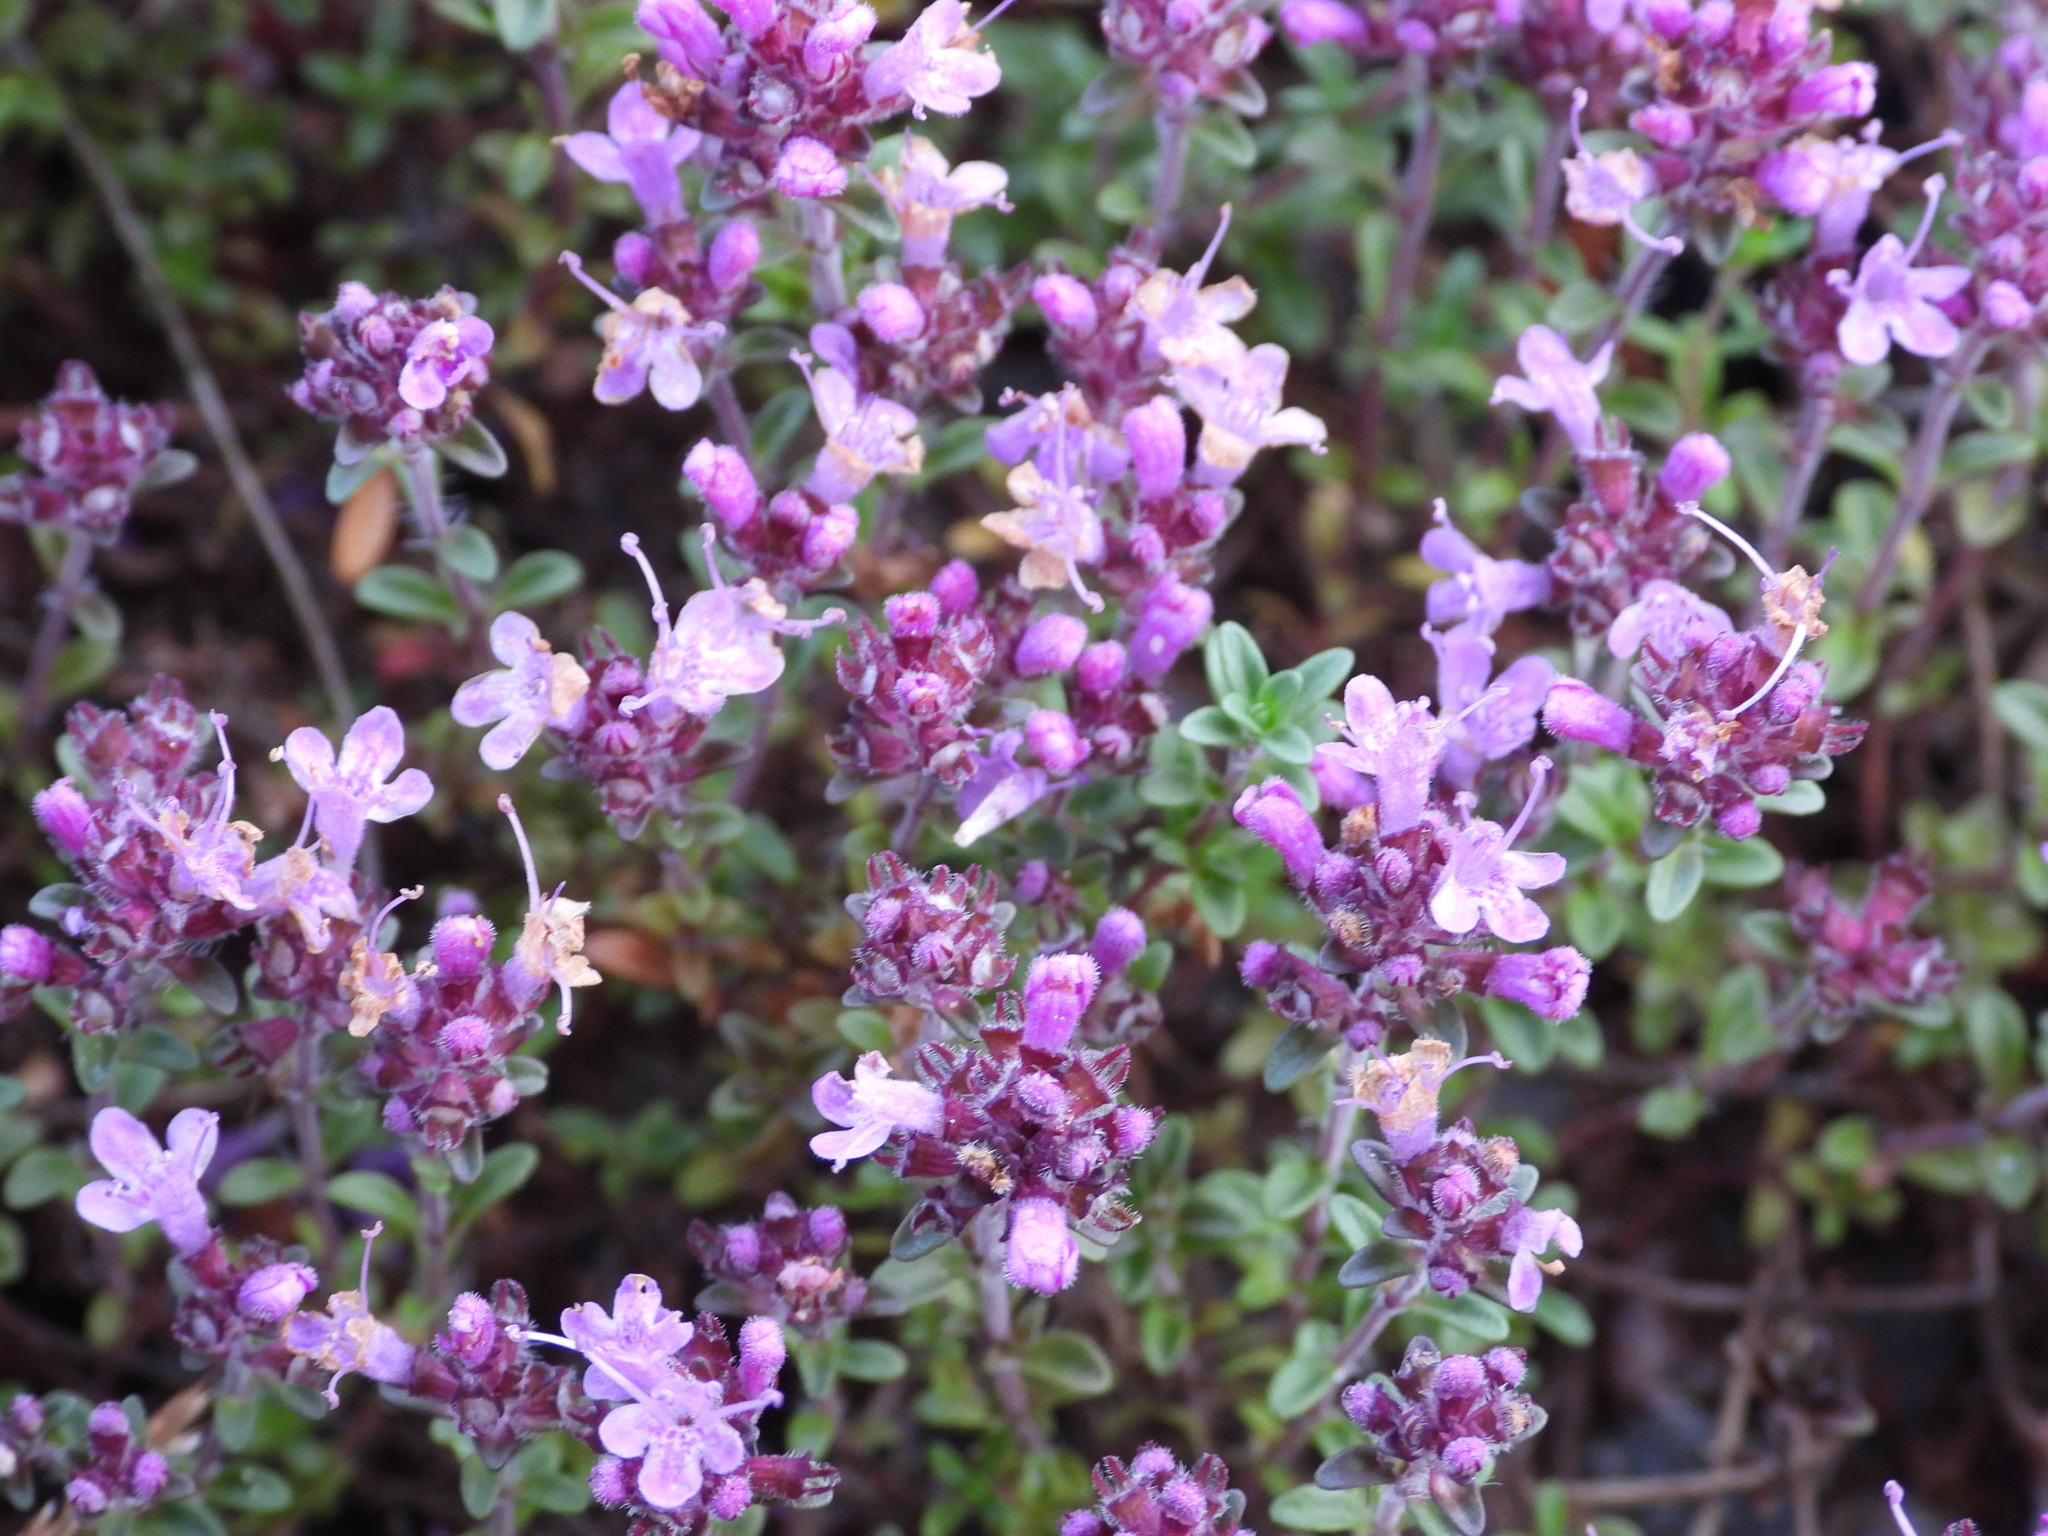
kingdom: Plantae
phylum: Tracheophyta
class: Magnoliopsida
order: Lamiales
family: Lamiaceae
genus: Thymus
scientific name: Thymus serpyllum
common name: Breckland thyme
